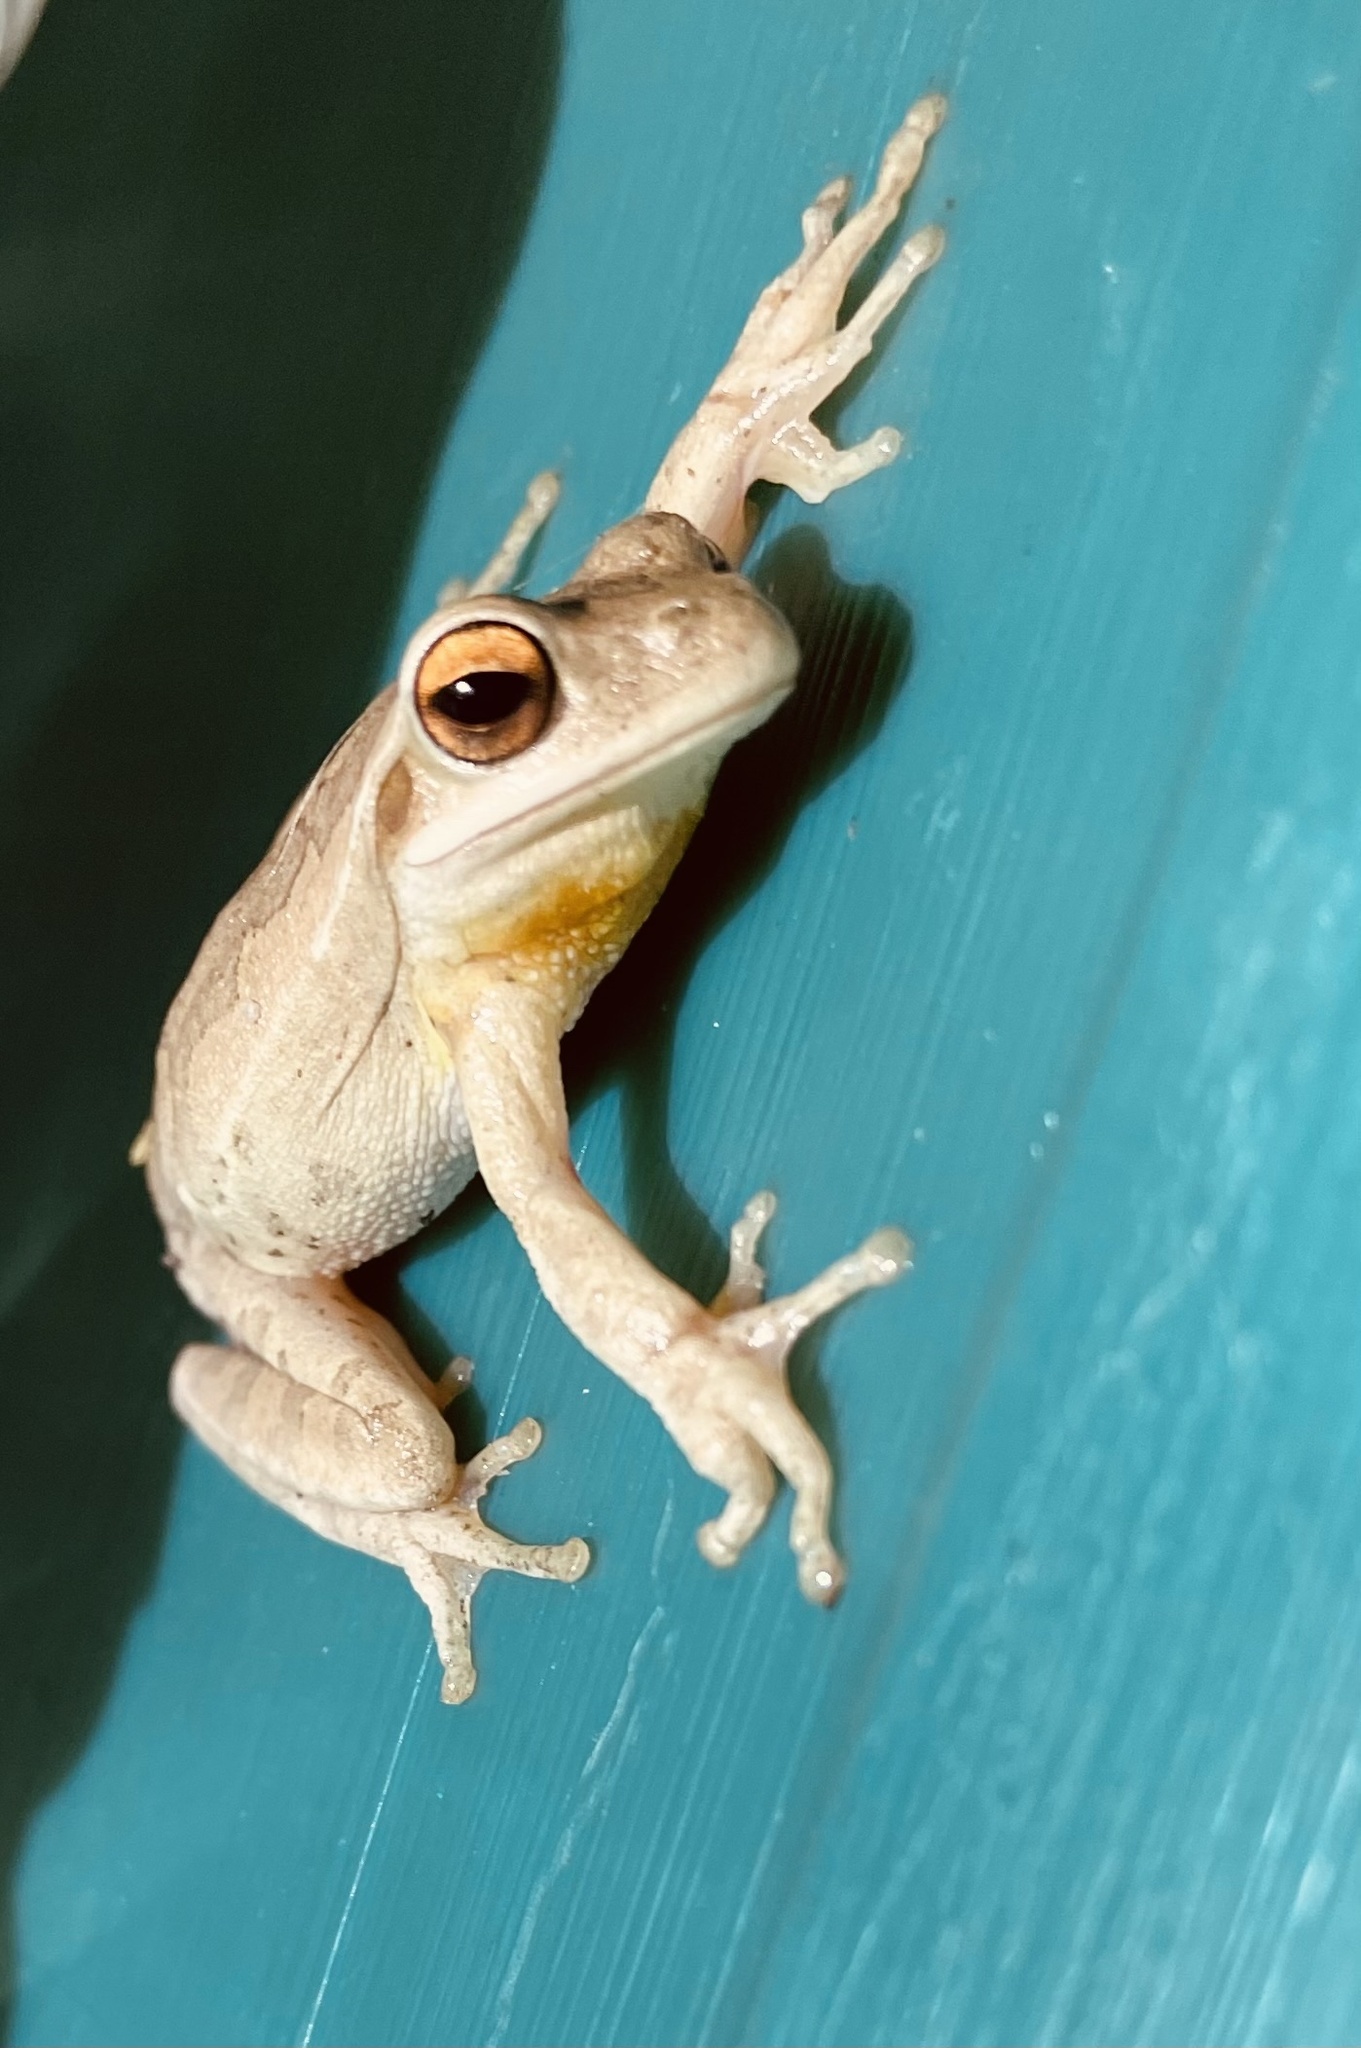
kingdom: Animalia
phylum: Chordata
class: Amphibia
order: Anura
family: Hylidae
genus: Boana
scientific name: Boana pulchella
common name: Montevideo treefrog
